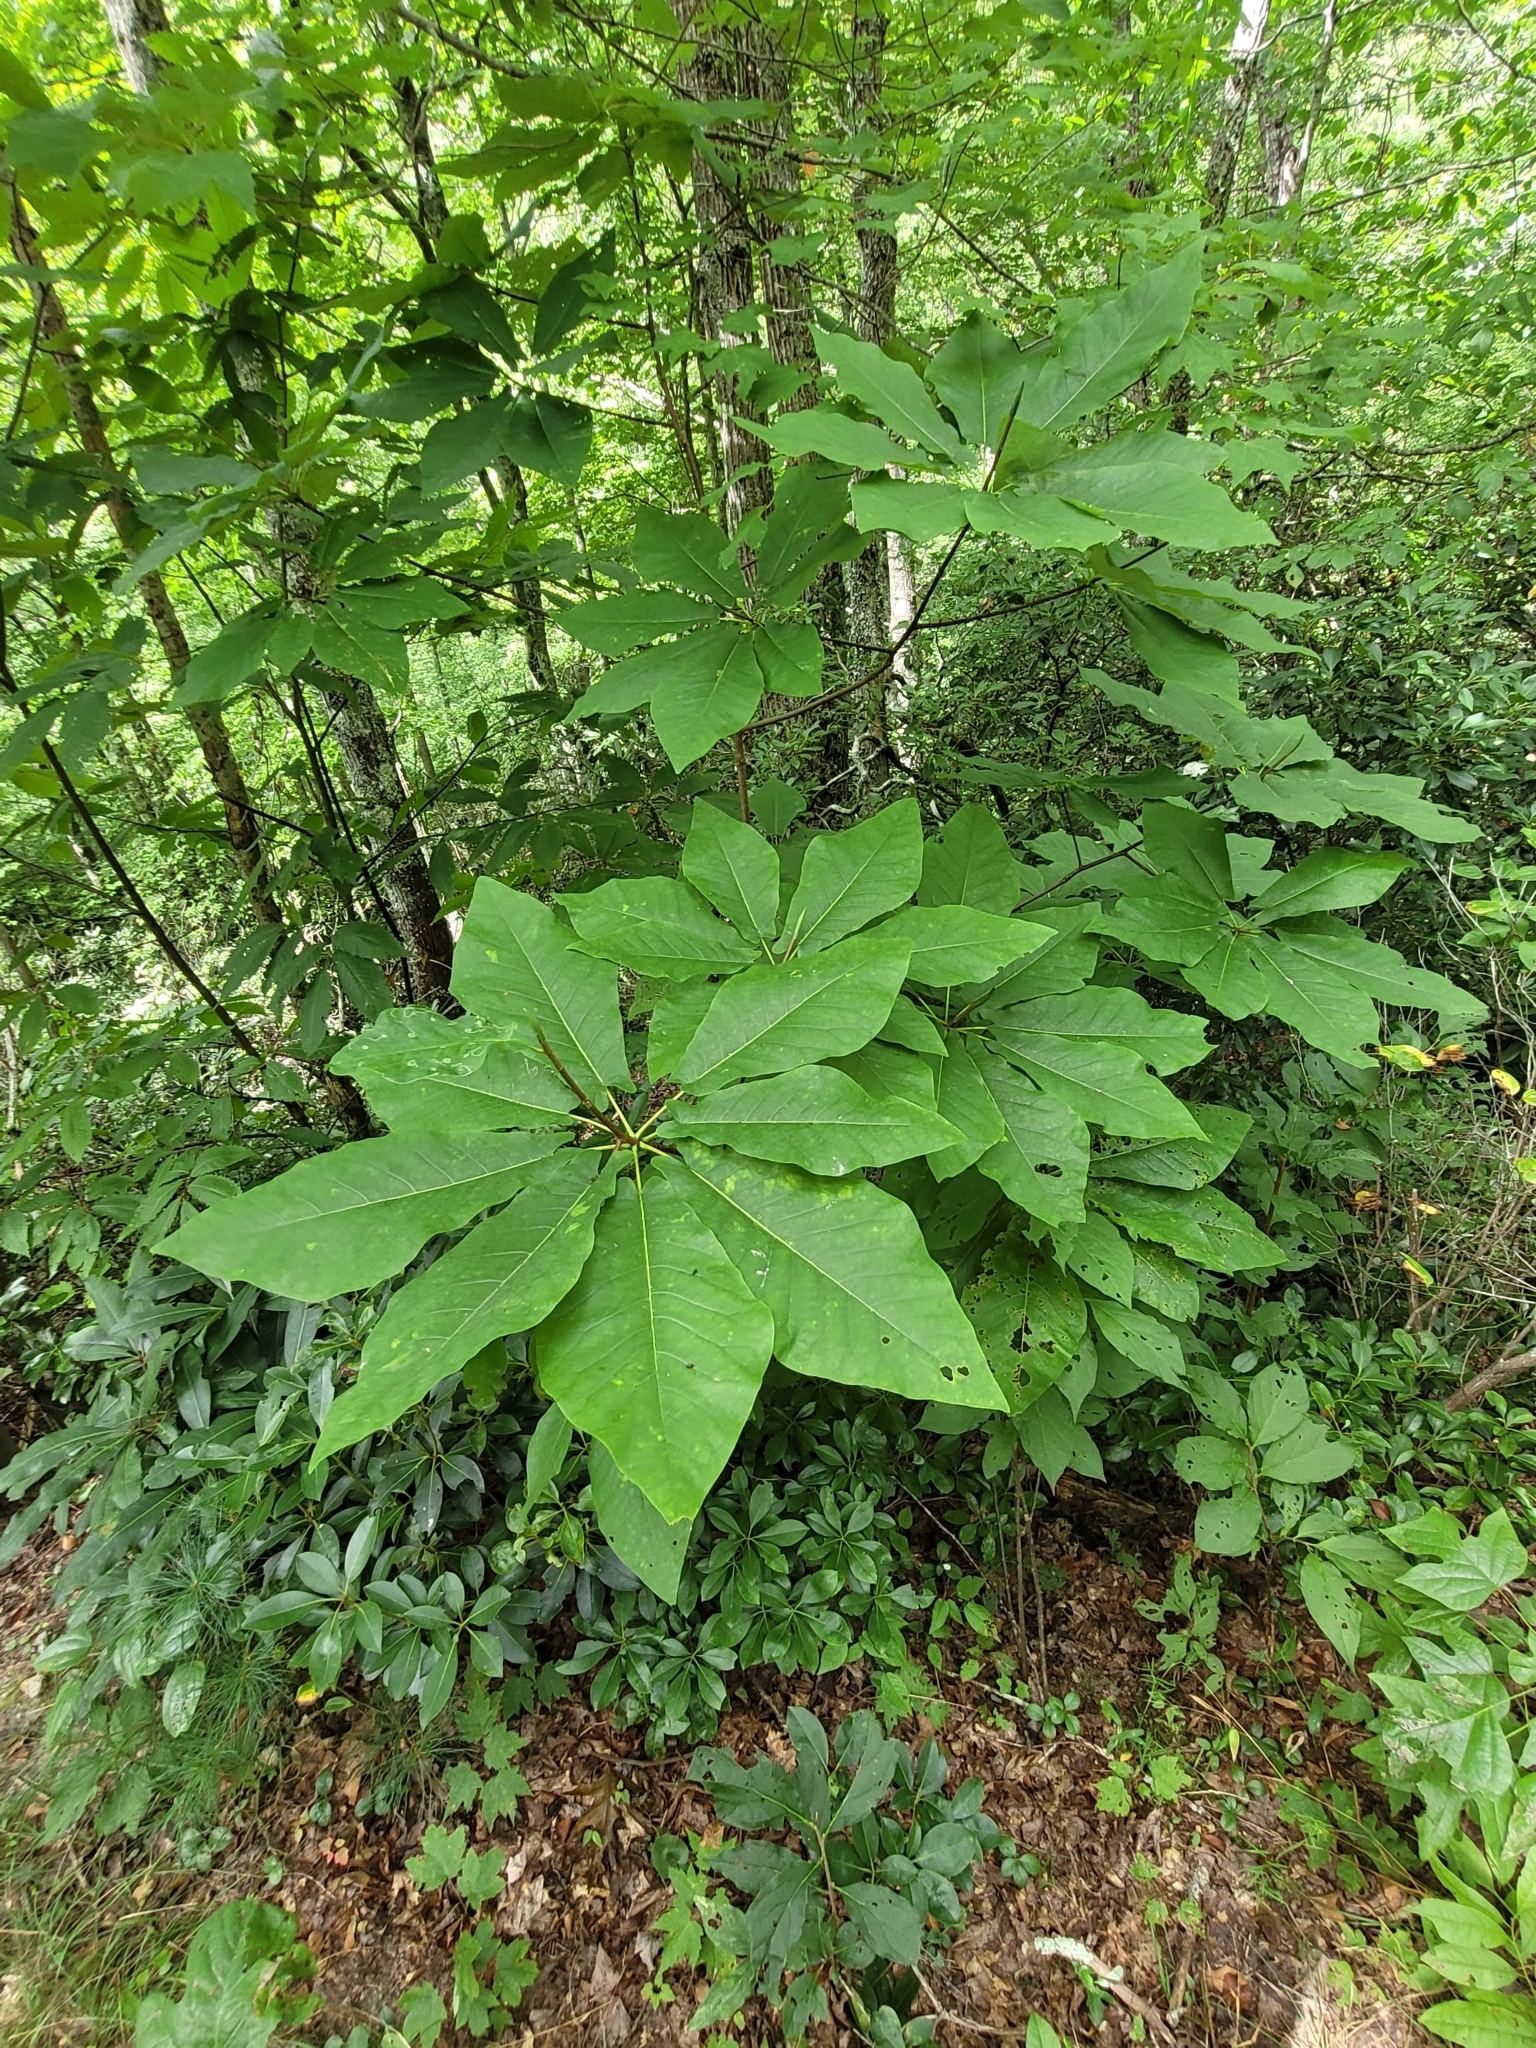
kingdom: Plantae
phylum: Tracheophyta
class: Magnoliopsida
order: Magnoliales
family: Magnoliaceae
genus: Magnolia
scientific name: Magnolia fraseri
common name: Fraser's magnolia
